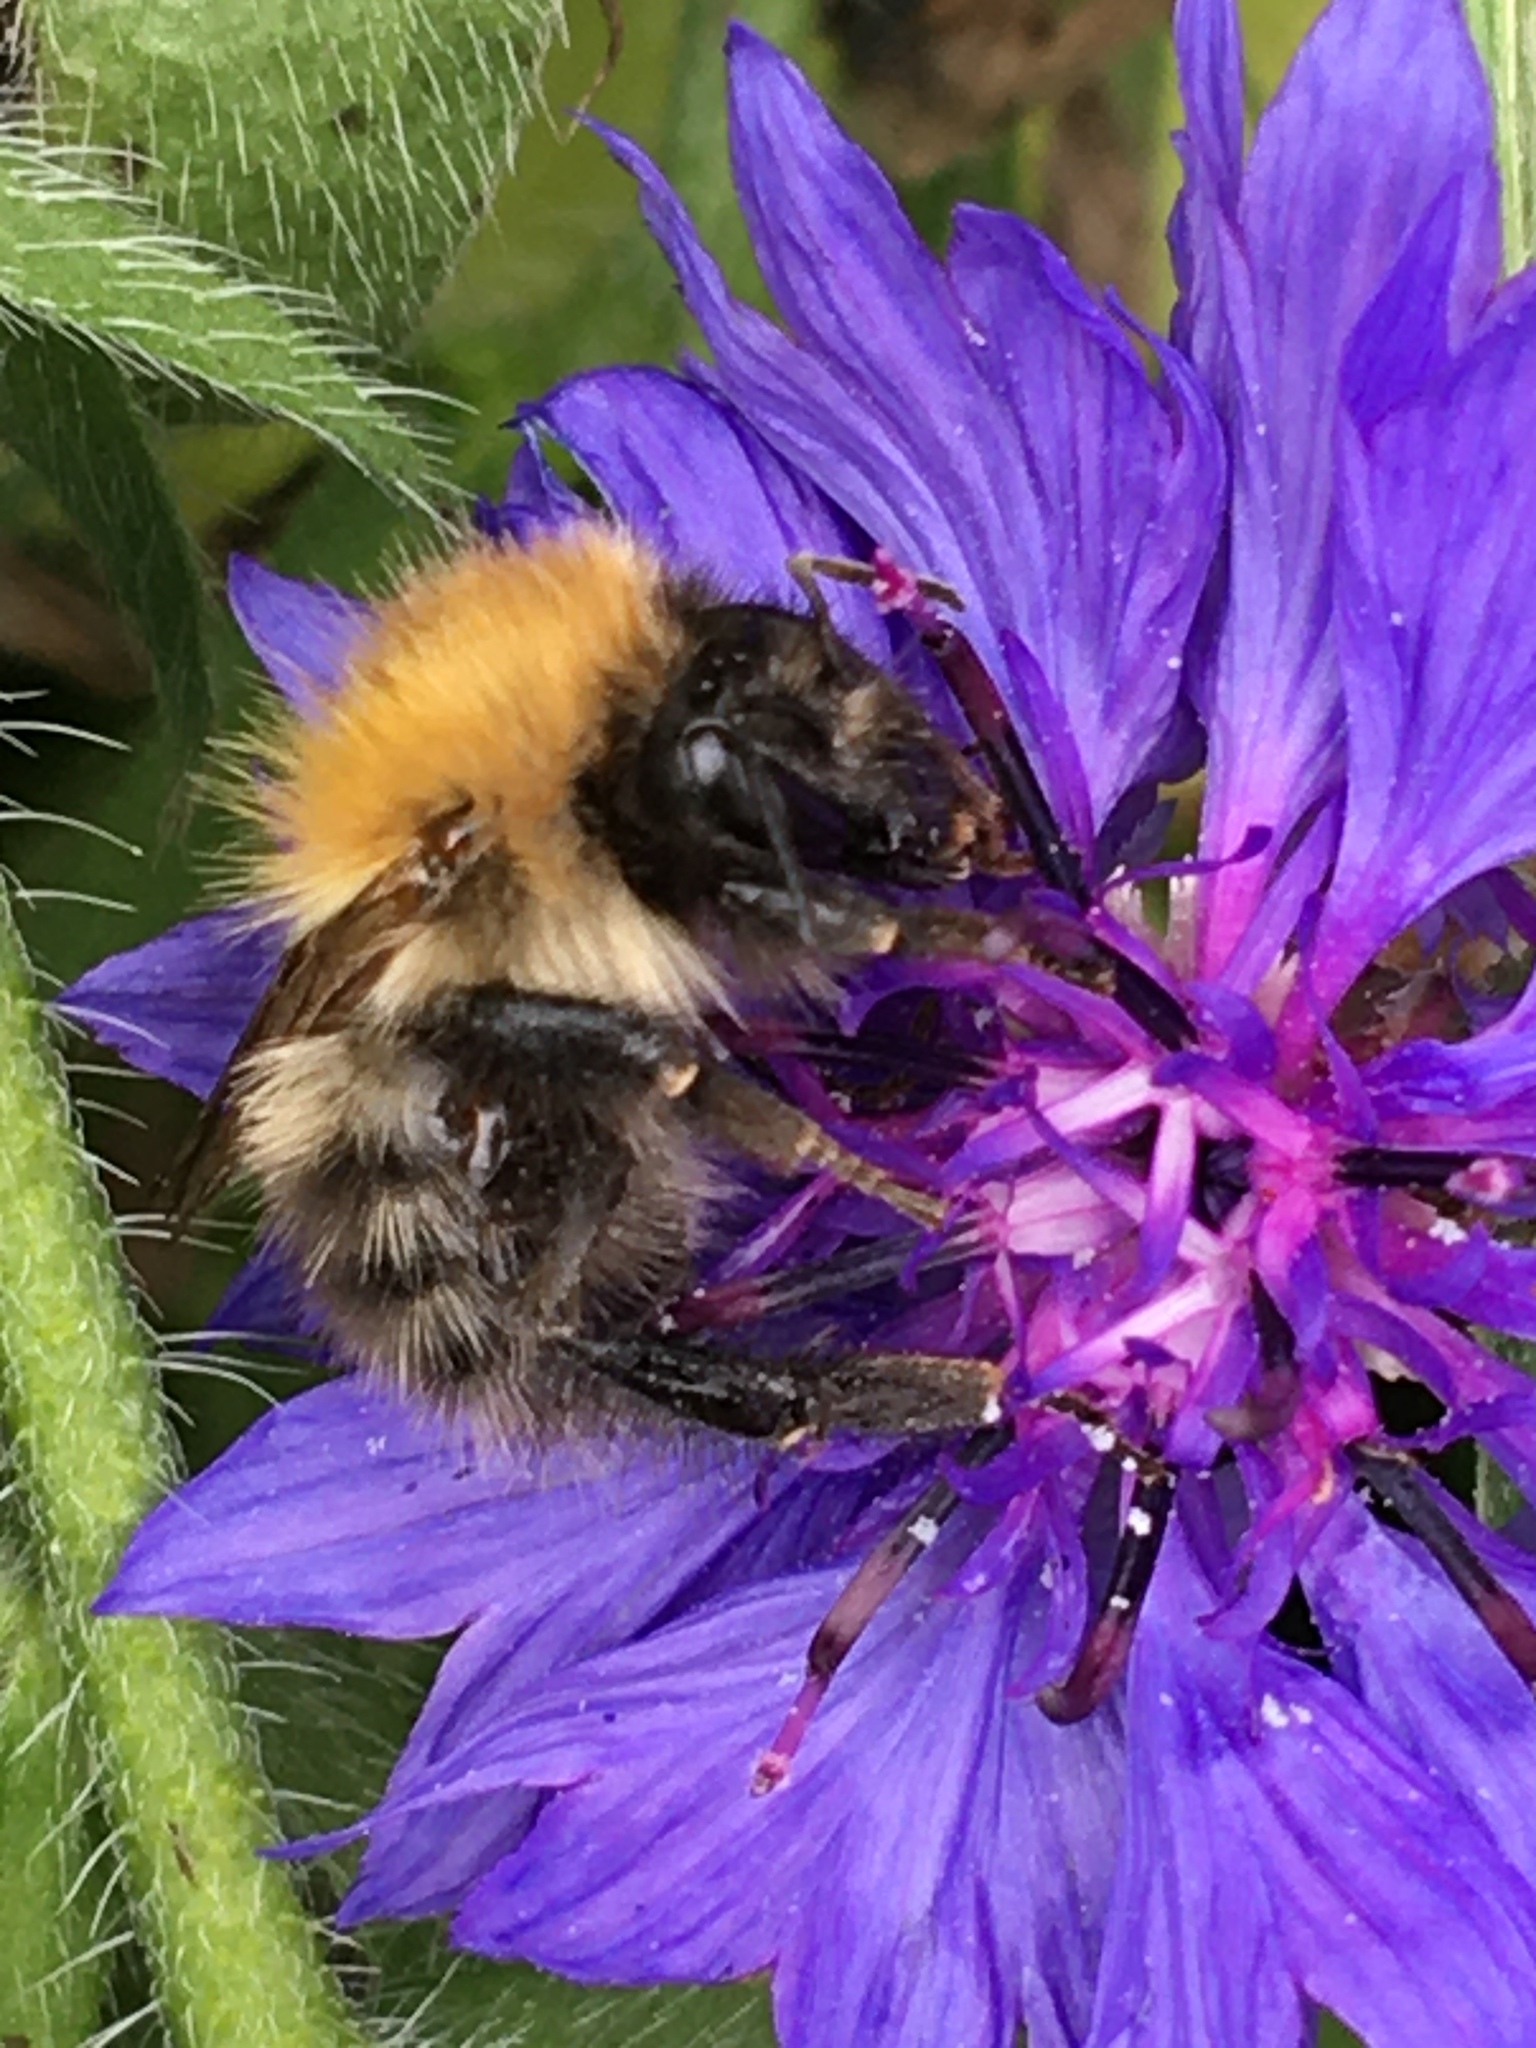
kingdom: Animalia
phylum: Arthropoda
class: Insecta
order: Hymenoptera
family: Apidae
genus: Bombus
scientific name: Bombus pascuorum
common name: Common carder bee
